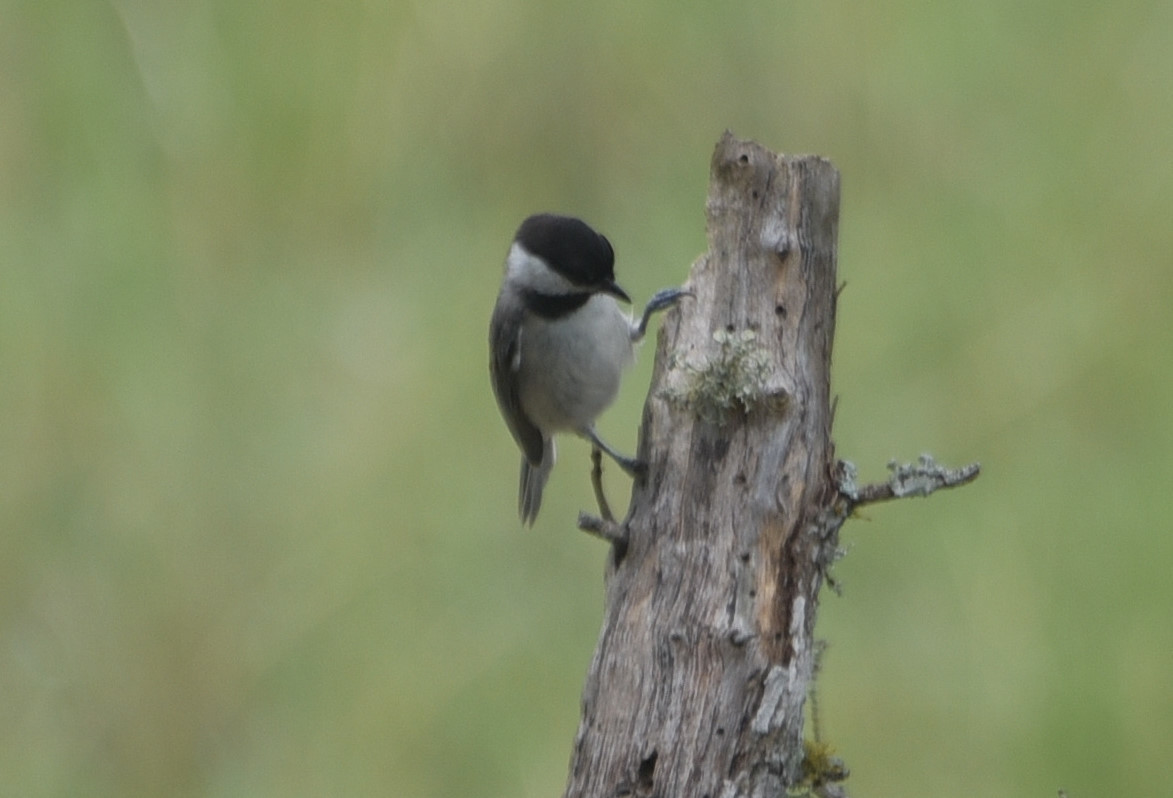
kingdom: Animalia
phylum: Chordata
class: Aves
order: Passeriformes
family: Paridae
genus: Poecile
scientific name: Poecile carolinensis
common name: Carolina chickadee
